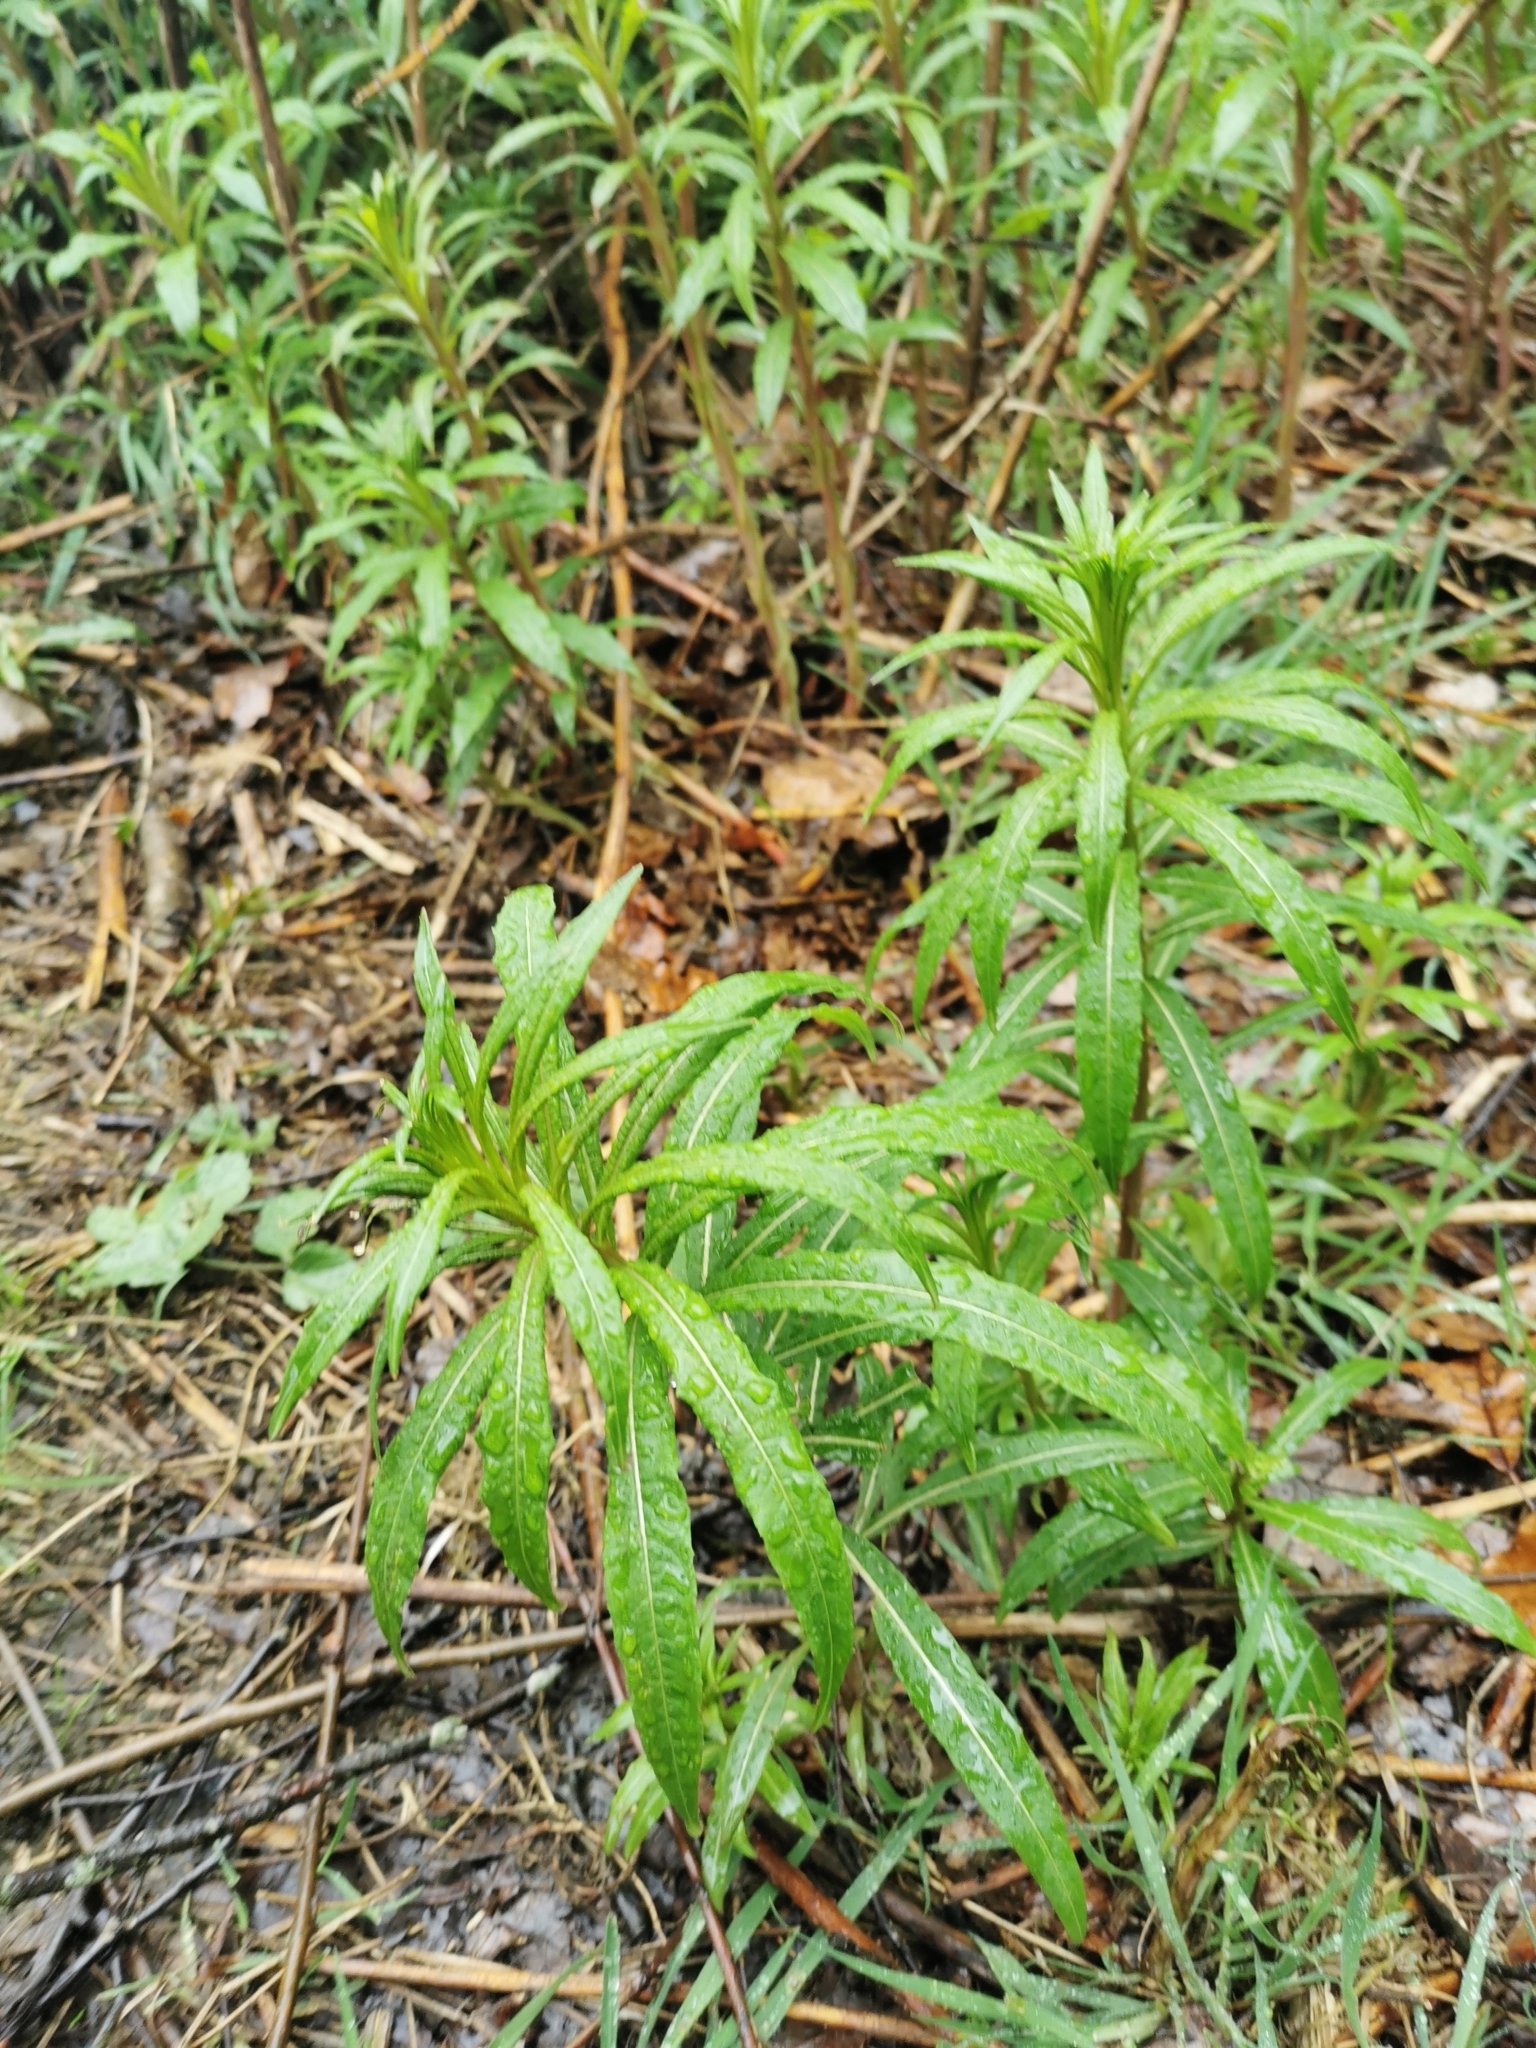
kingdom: Plantae
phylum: Tracheophyta
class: Magnoliopsida
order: Myrtales
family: Onagraceae
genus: Chamaenerion
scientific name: Chamaenerion angustifolium
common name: Fireweed
